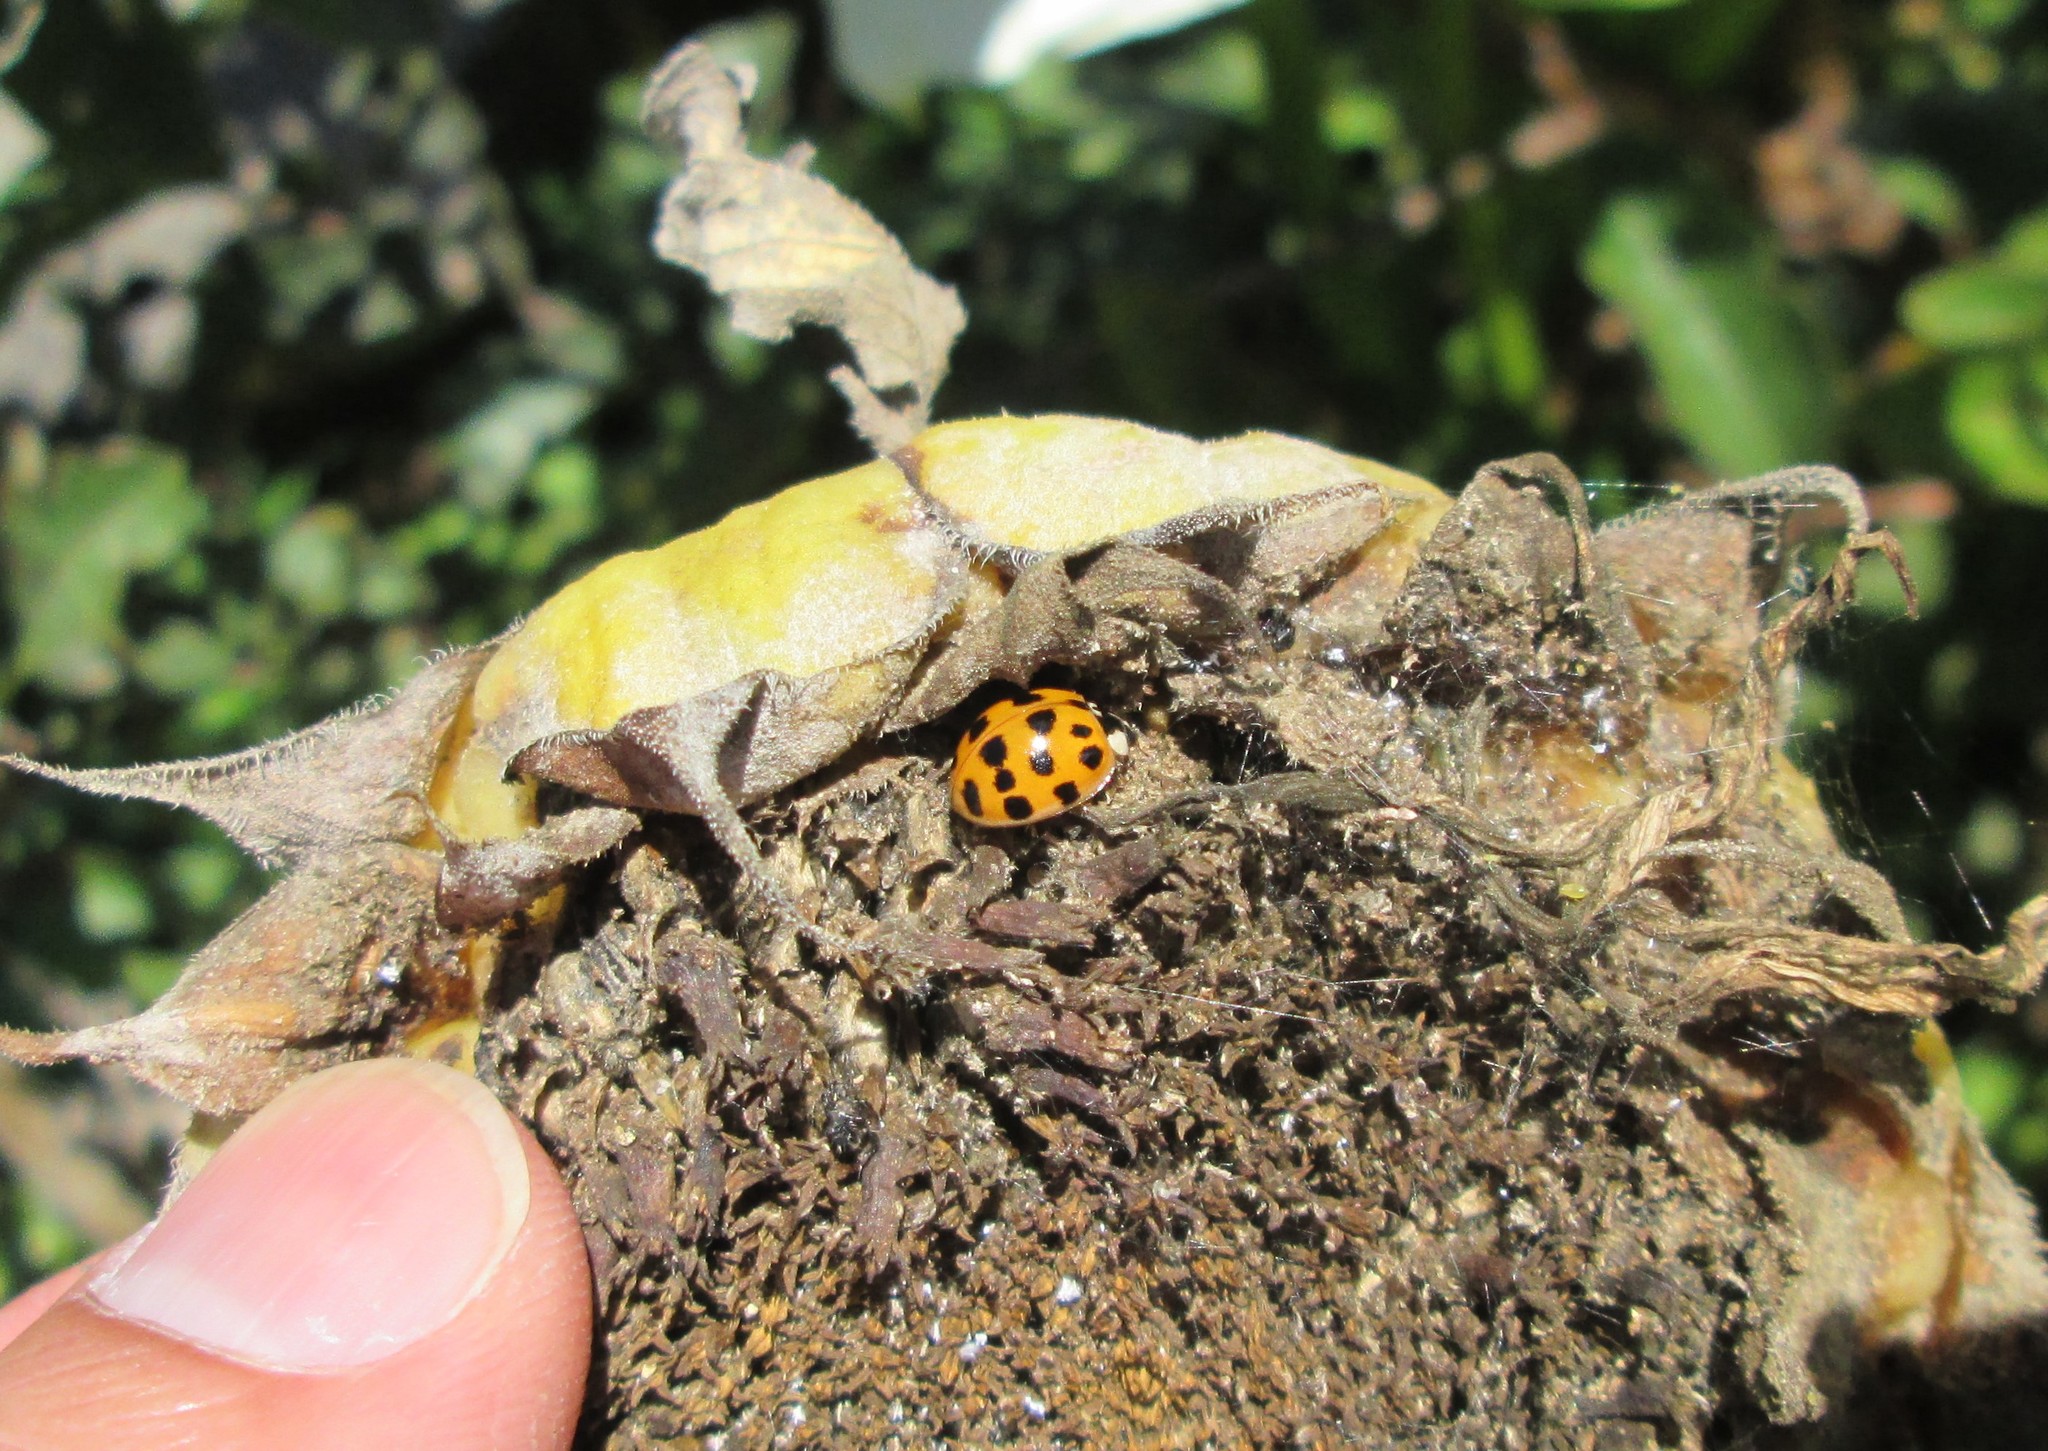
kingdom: Animalia
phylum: Arthropoda
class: Insecta
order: Coleoptera
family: Coccinellidae
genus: Harmonia
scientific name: Harmonia axyridis
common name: Harlequin ladybird
